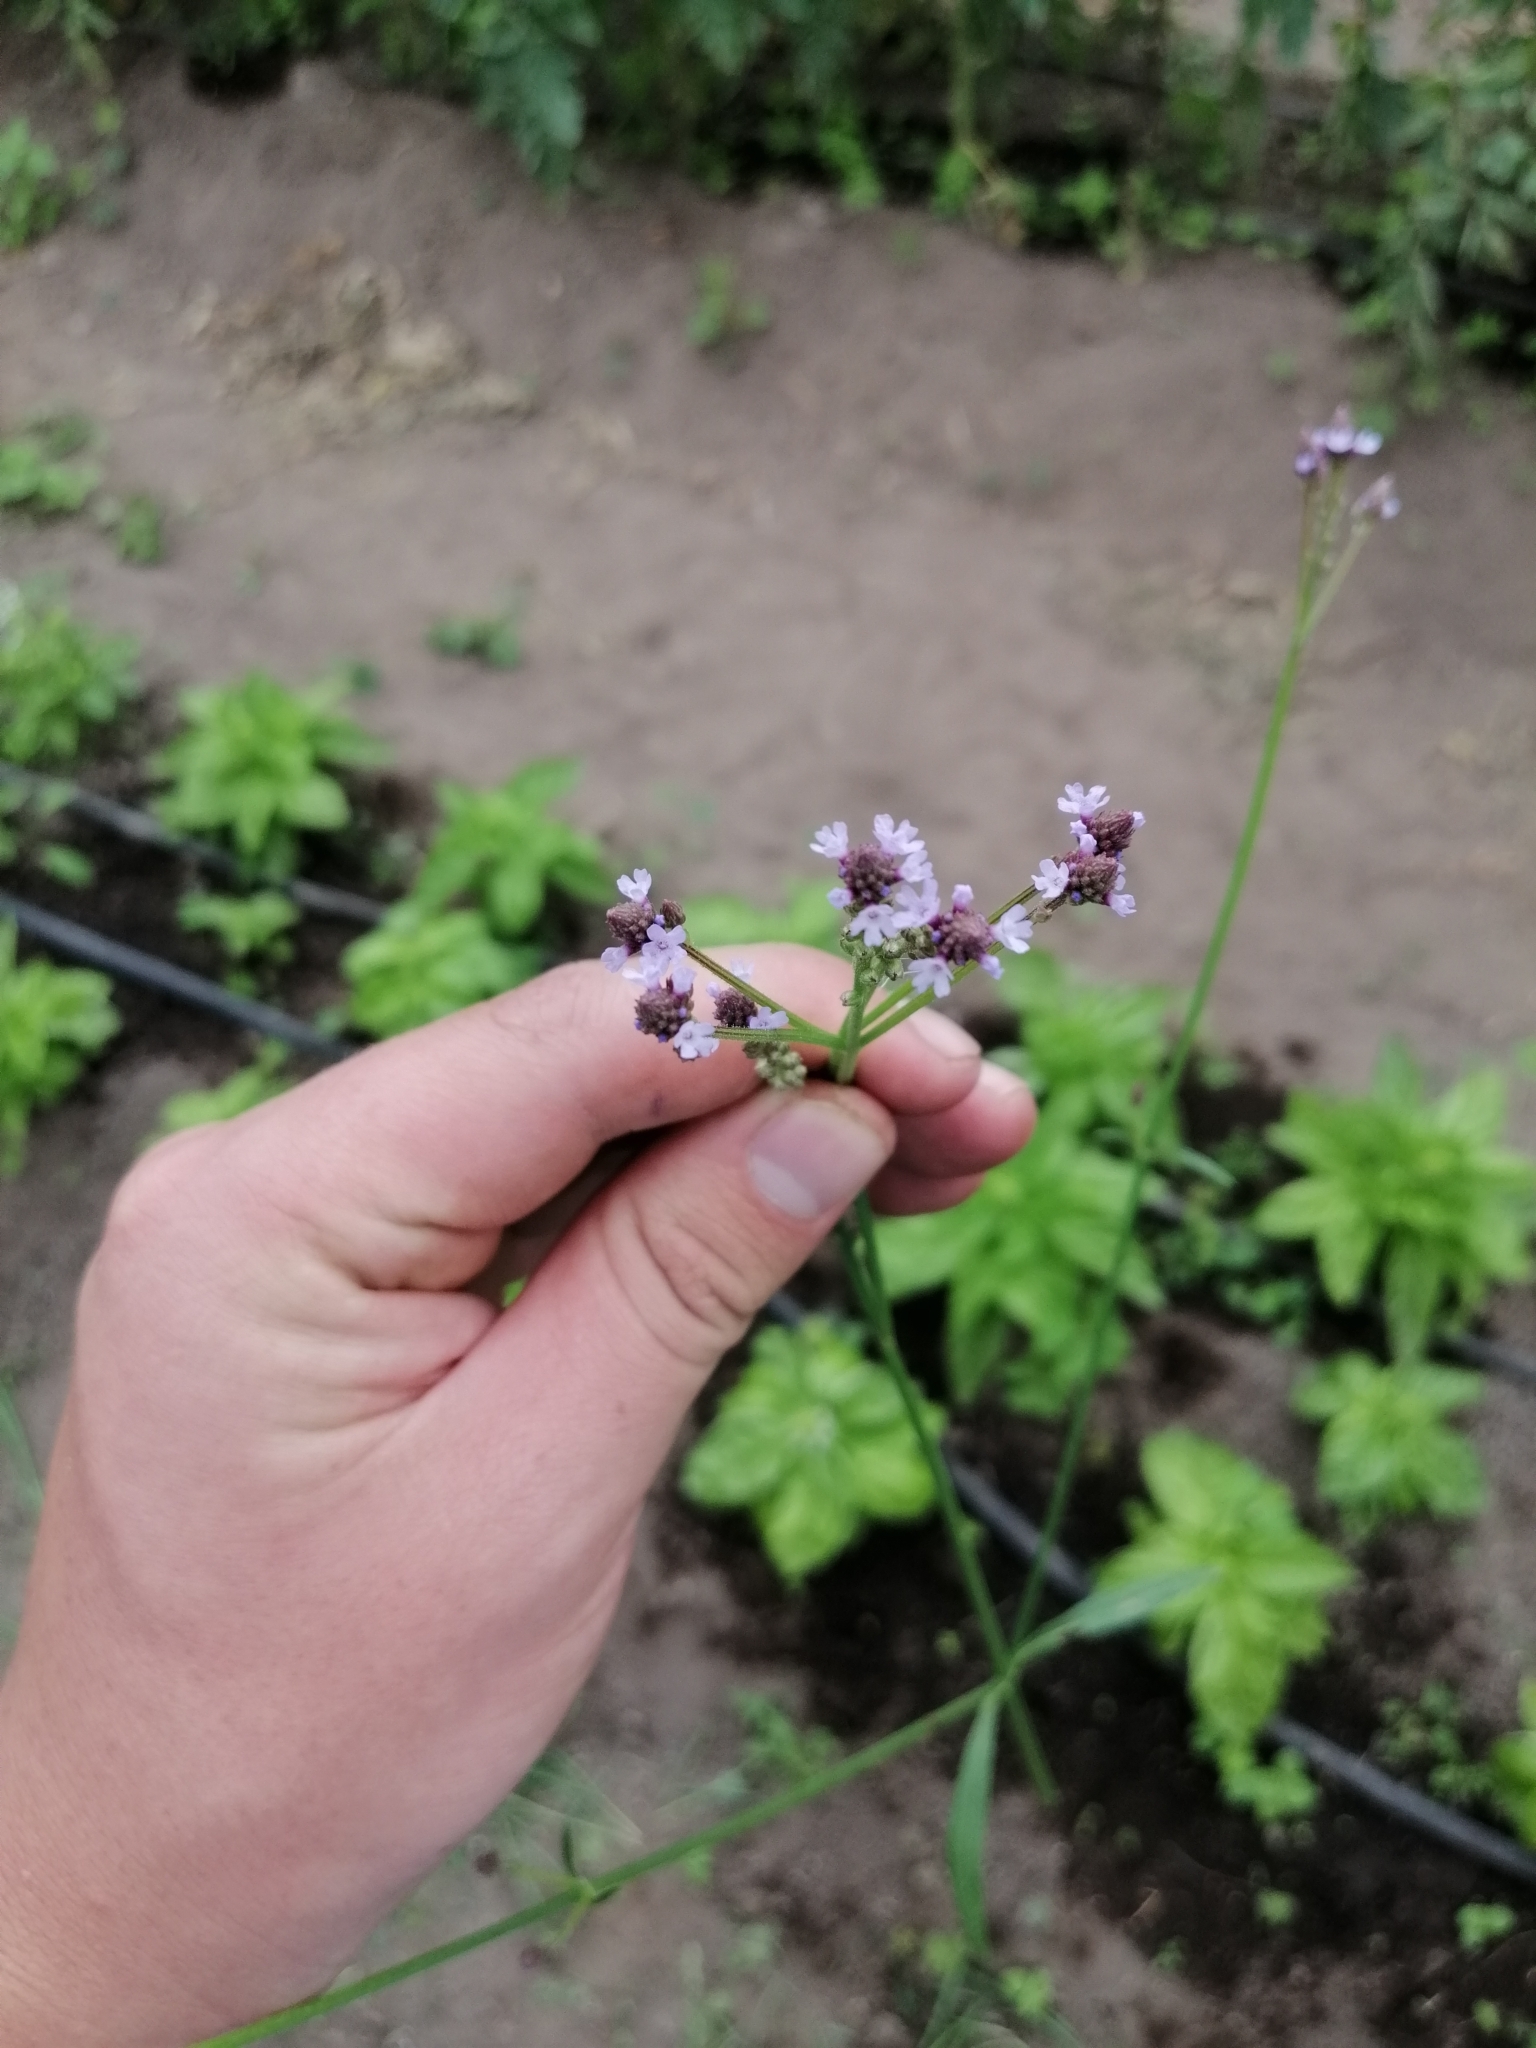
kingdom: Plantae
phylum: Tracheophyta
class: Magnoliopsida
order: Lamiales
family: Verbenaceae
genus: Verbena
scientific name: Verbena litoralis
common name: Seashore vervain
